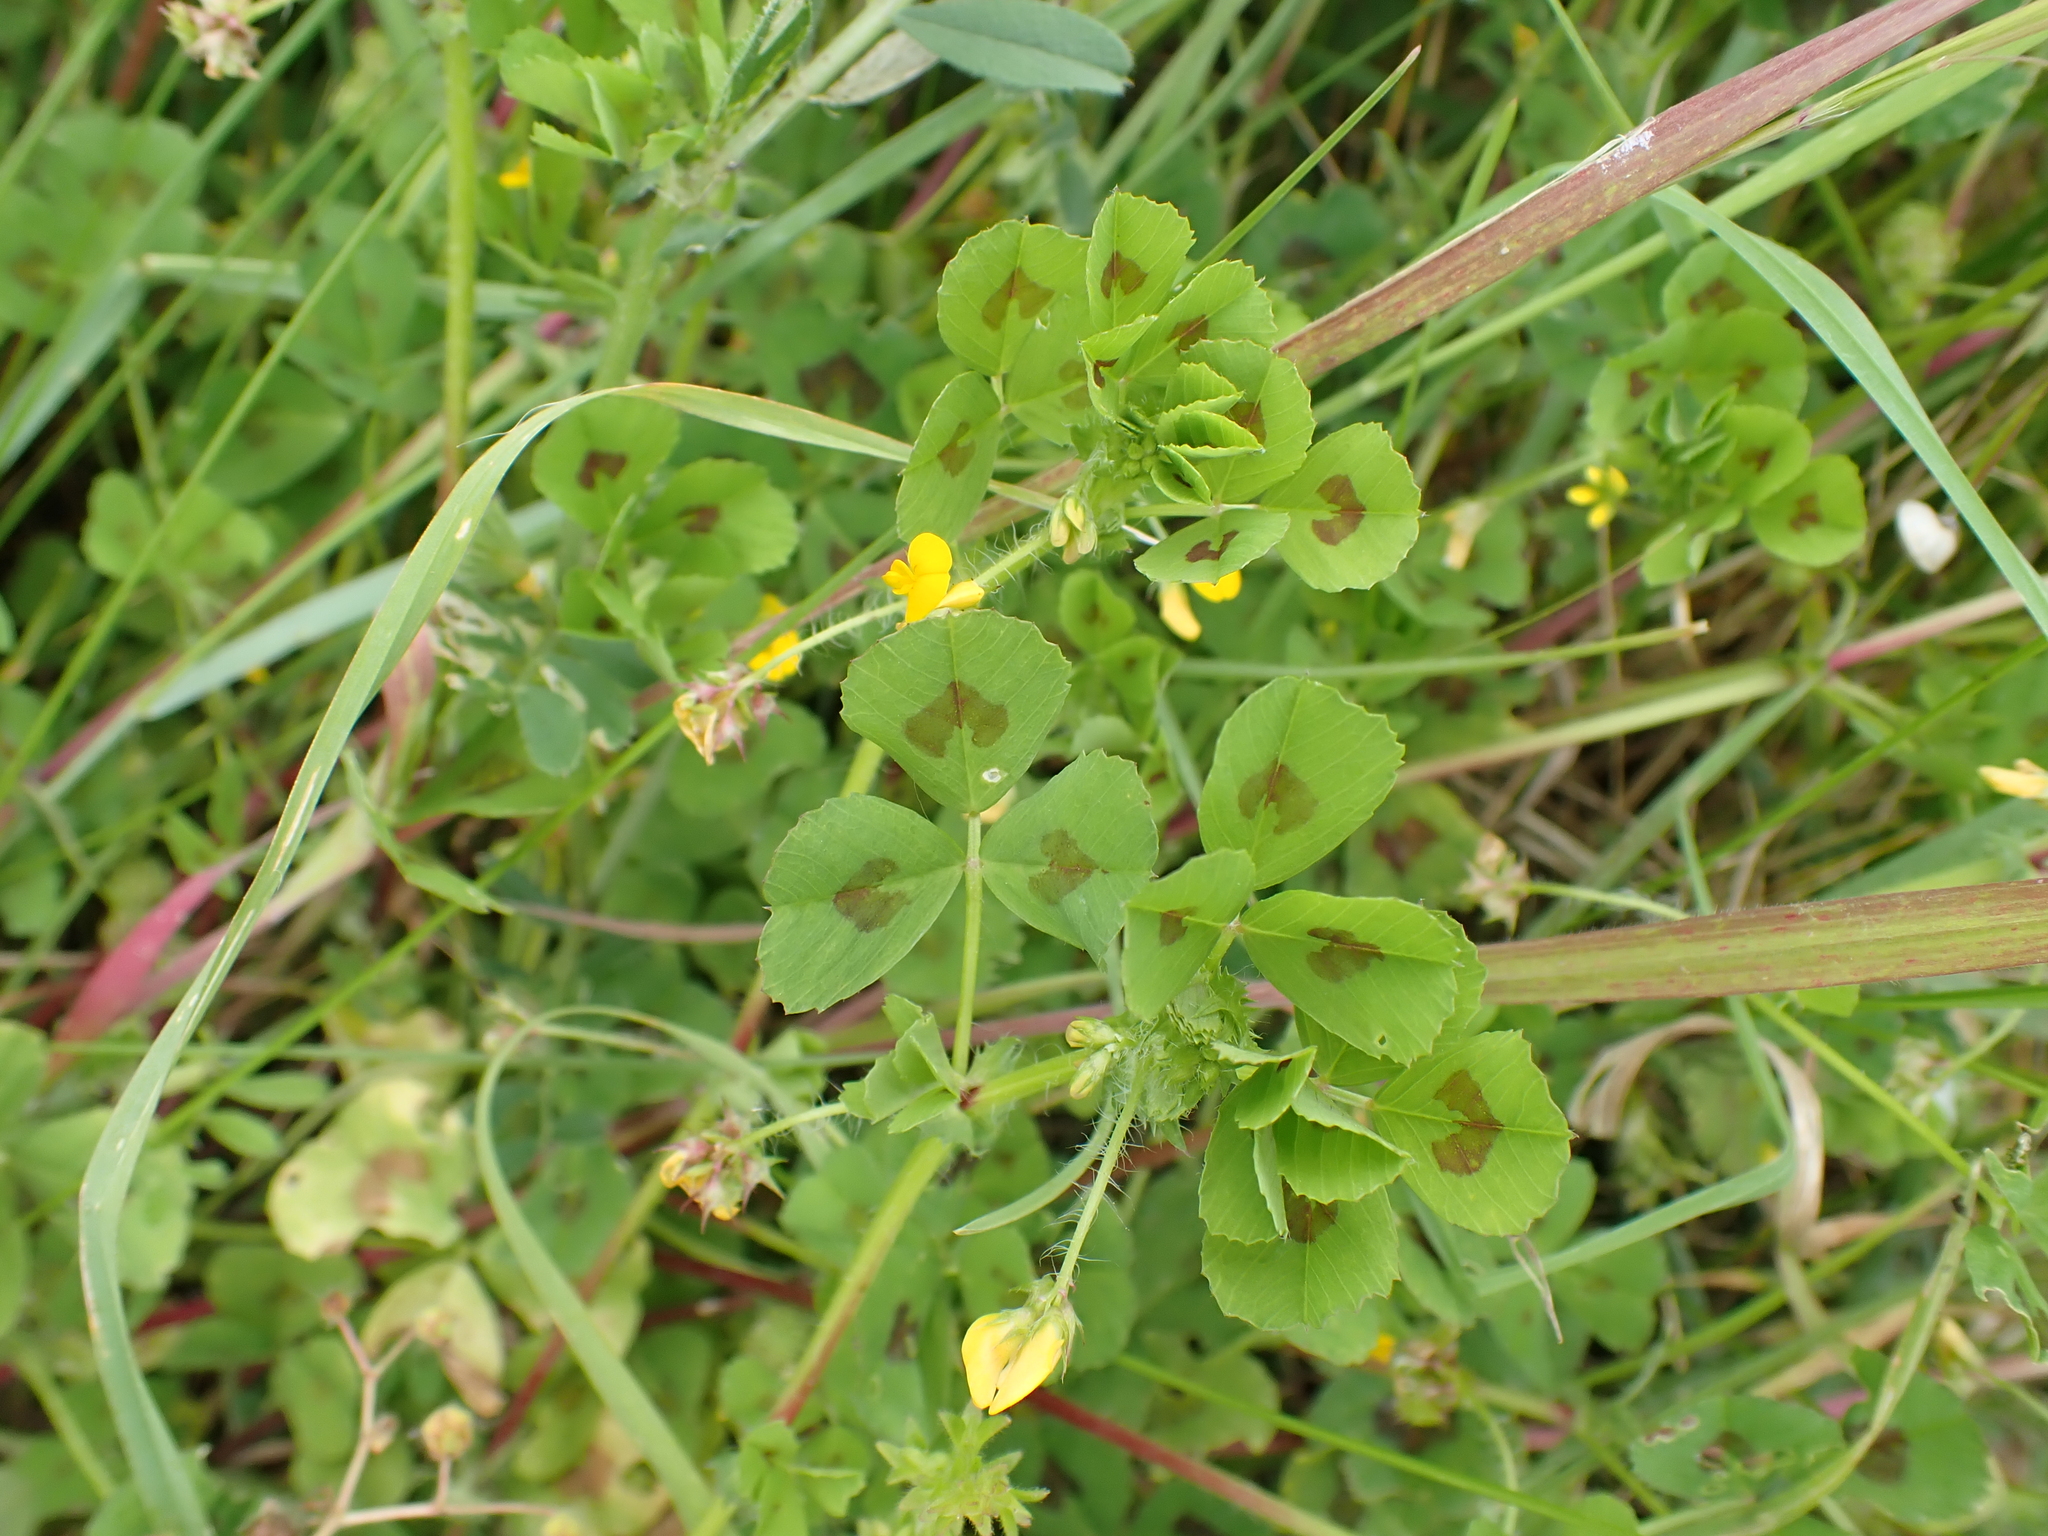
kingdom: Plantae
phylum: Tracheophyta
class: Magnoliopsida
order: Fabales
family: Fabaceae
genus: Medicago
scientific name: Medicago arabica
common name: Spotted medick
